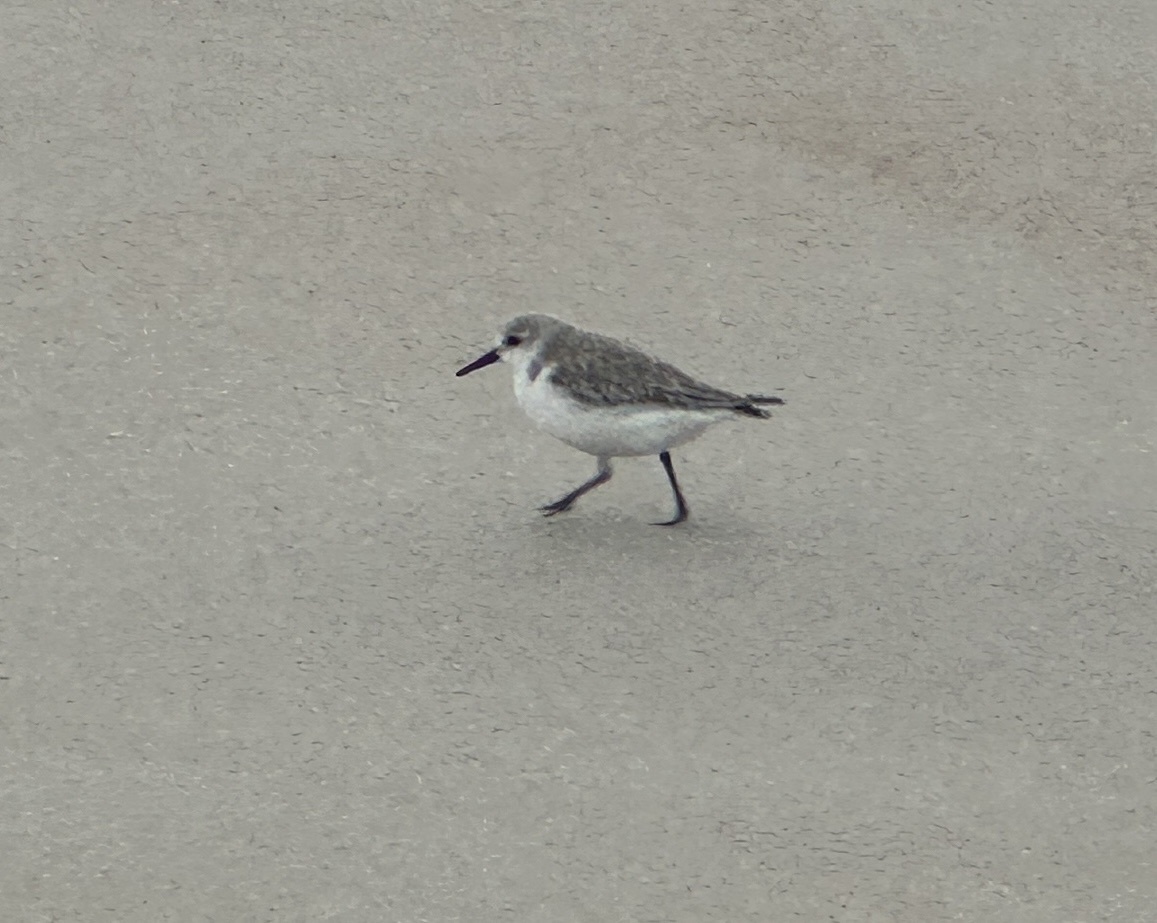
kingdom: Animalia
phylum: Chordata
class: Aves
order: Charadriiformes
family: Scolopacidae
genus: Calidris
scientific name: Calidris alba
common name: Sanderling
